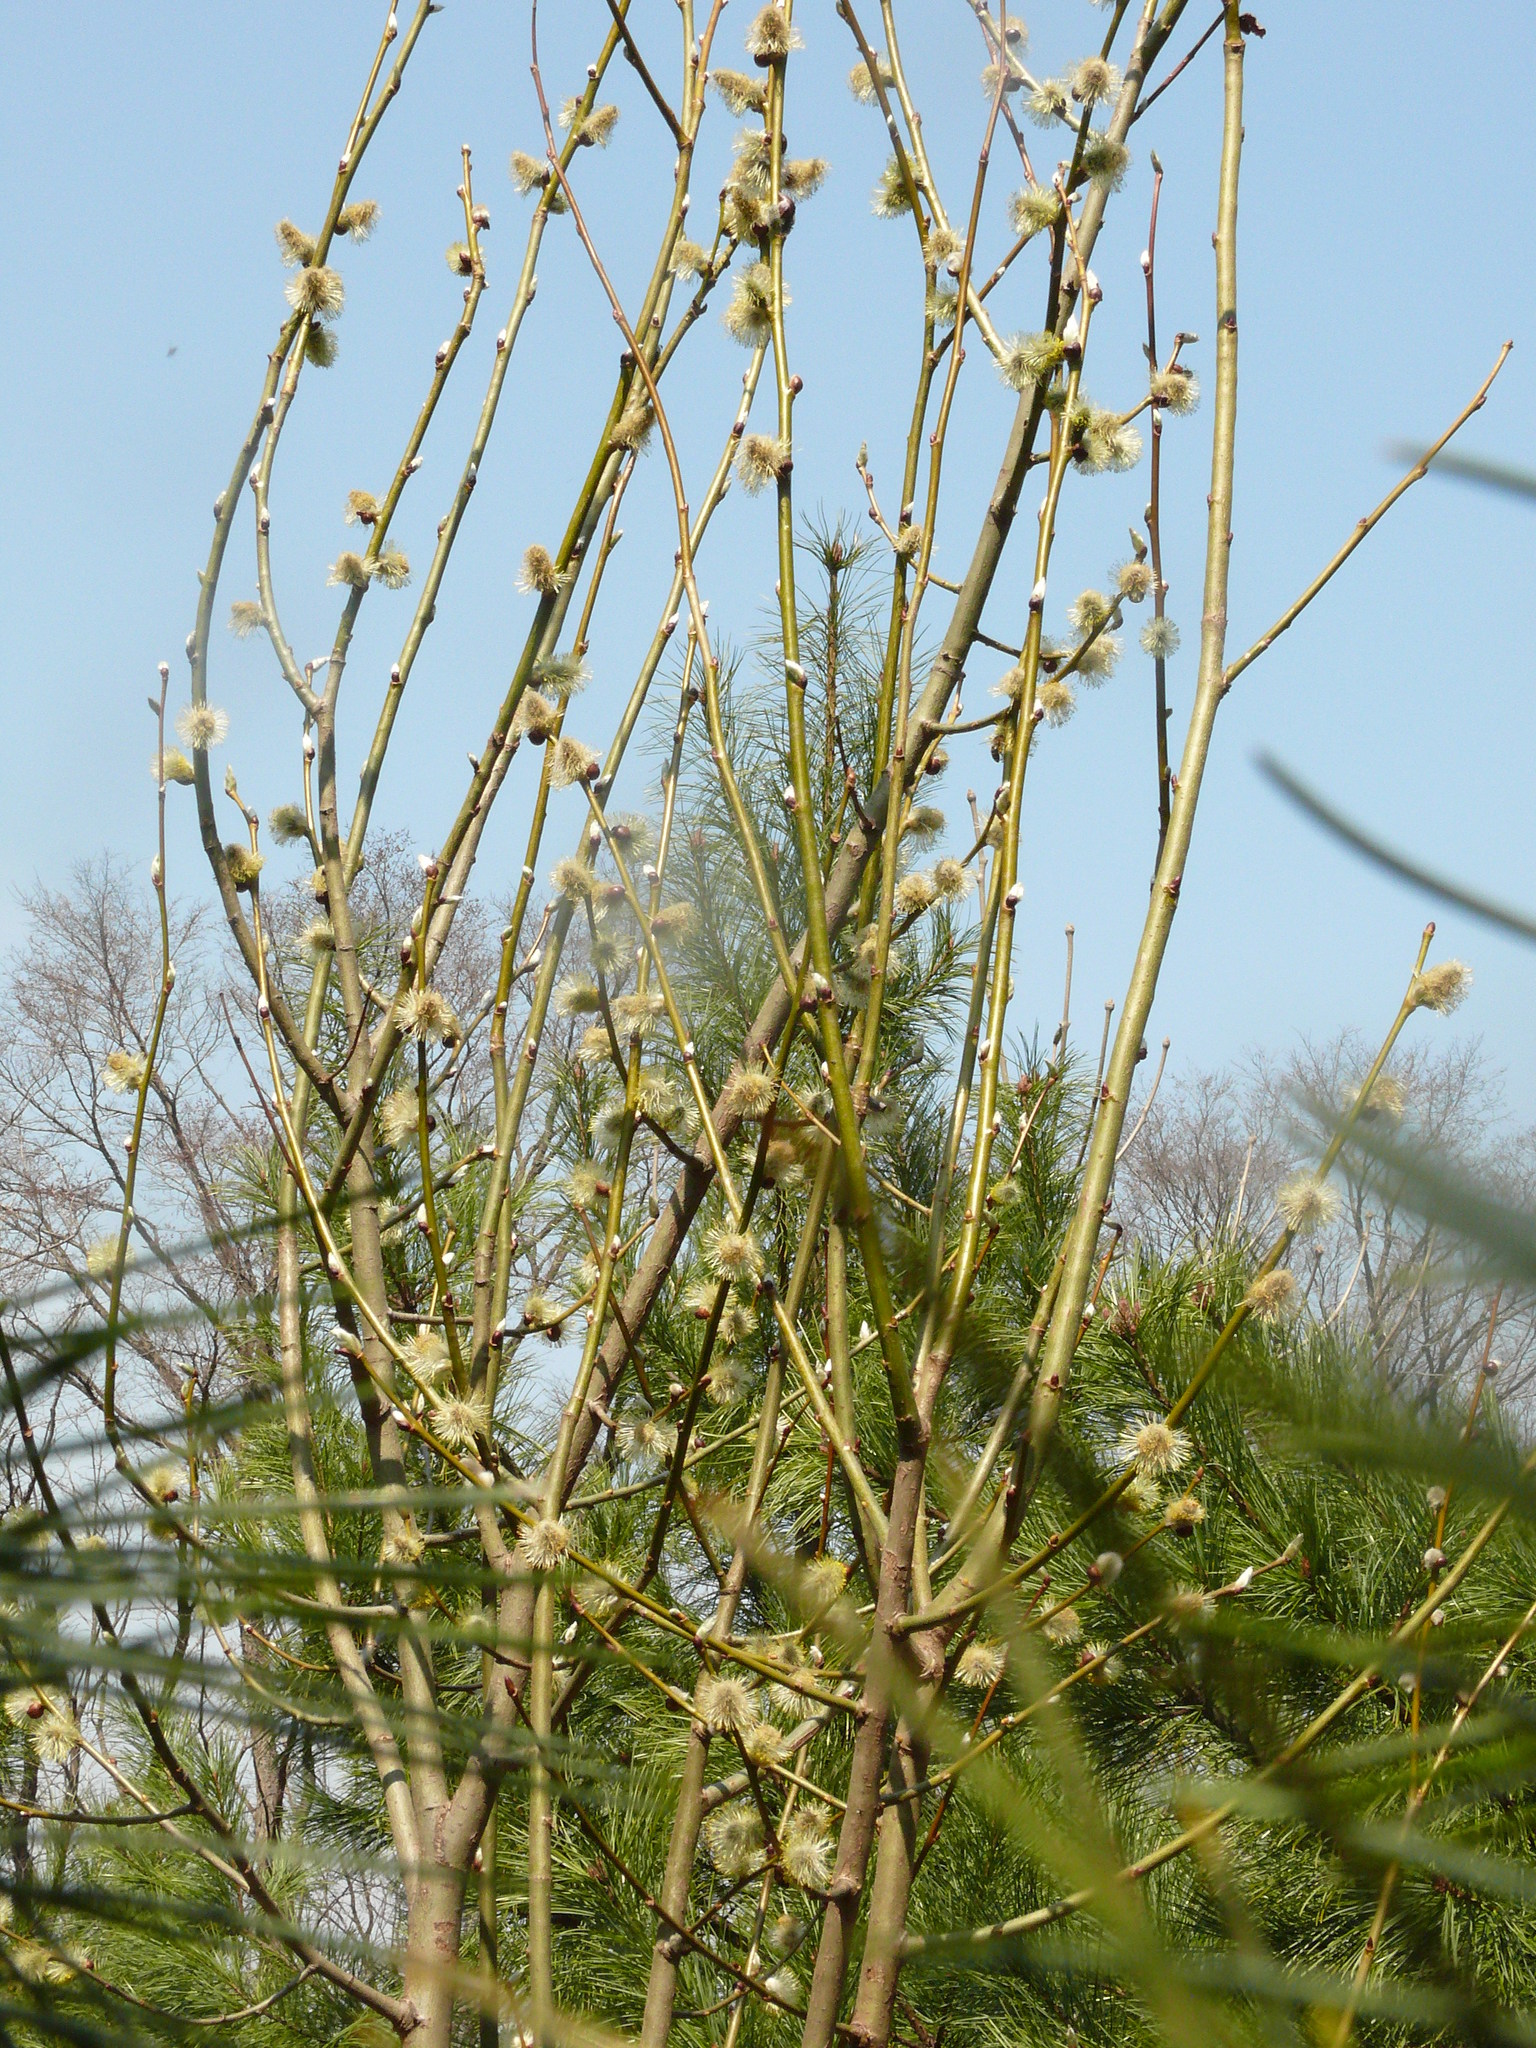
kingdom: Plantae
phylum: Tracheophyta
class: Magnoliopsida
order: Malpighiales
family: Salicaceae
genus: Salix
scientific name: Salix caprea
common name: Goat willow
